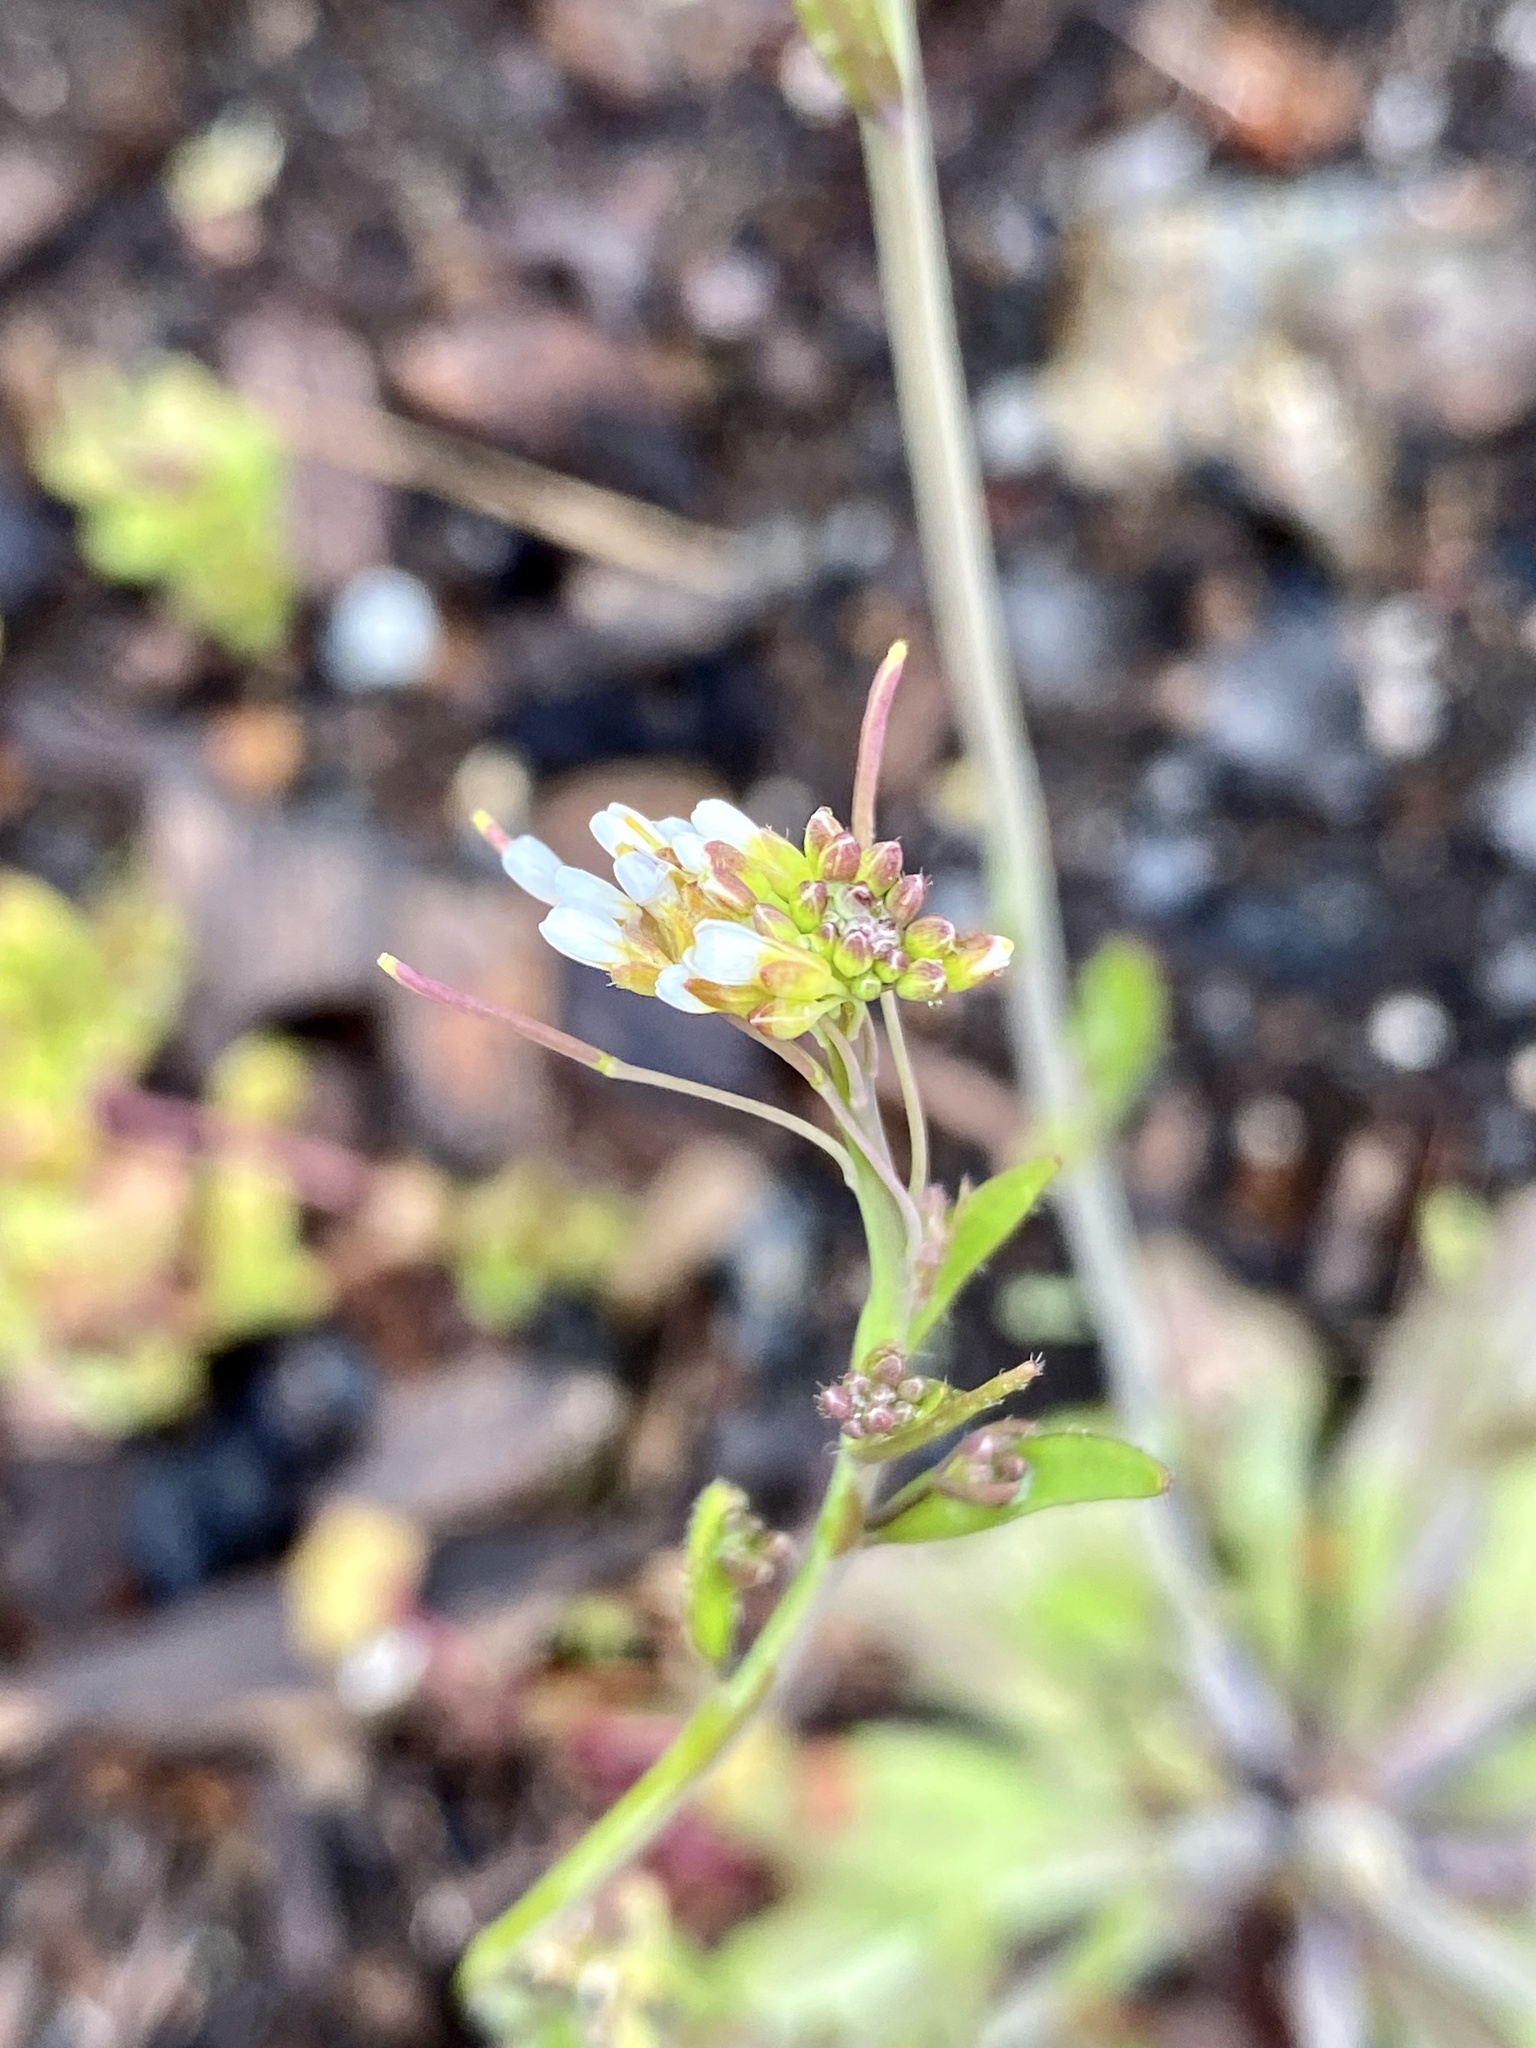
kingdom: Plantae
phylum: Tracheophyta
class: Magnoliopsida
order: Brassicales
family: Brassicaceae
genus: Arabidopsis
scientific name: Arabidopsis thaliana
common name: Thale cress
